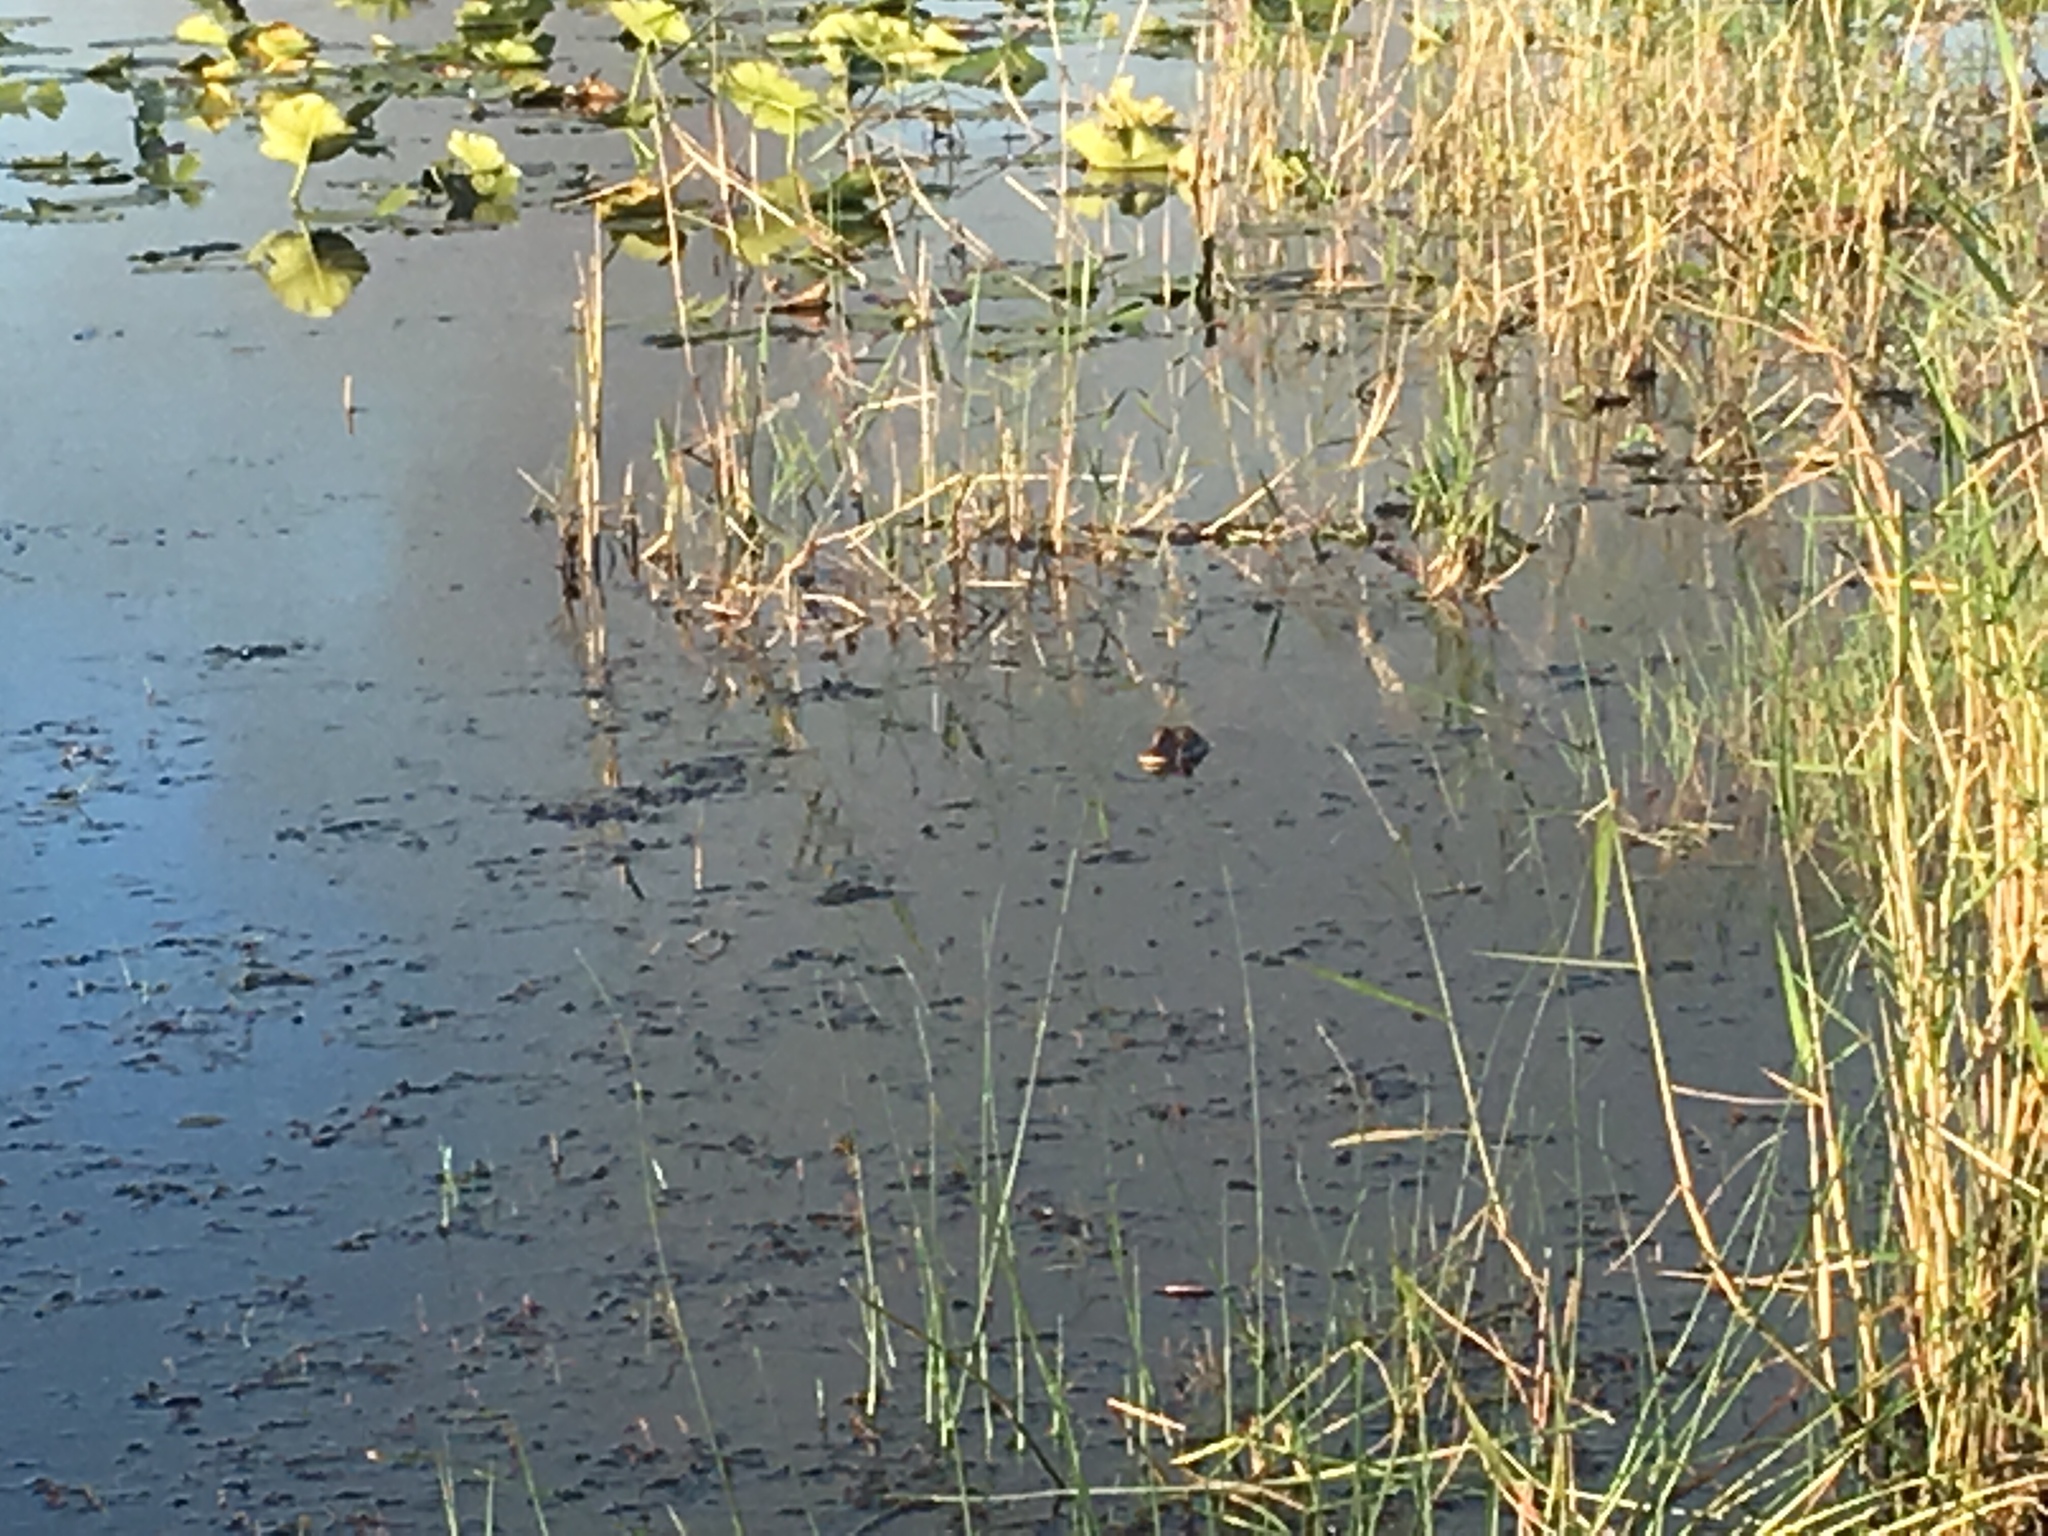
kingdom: Animalia
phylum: Chordata
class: Crocodylia
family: Alligatoridae
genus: Alligator
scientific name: Alligator mississippiensis
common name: American alligator
